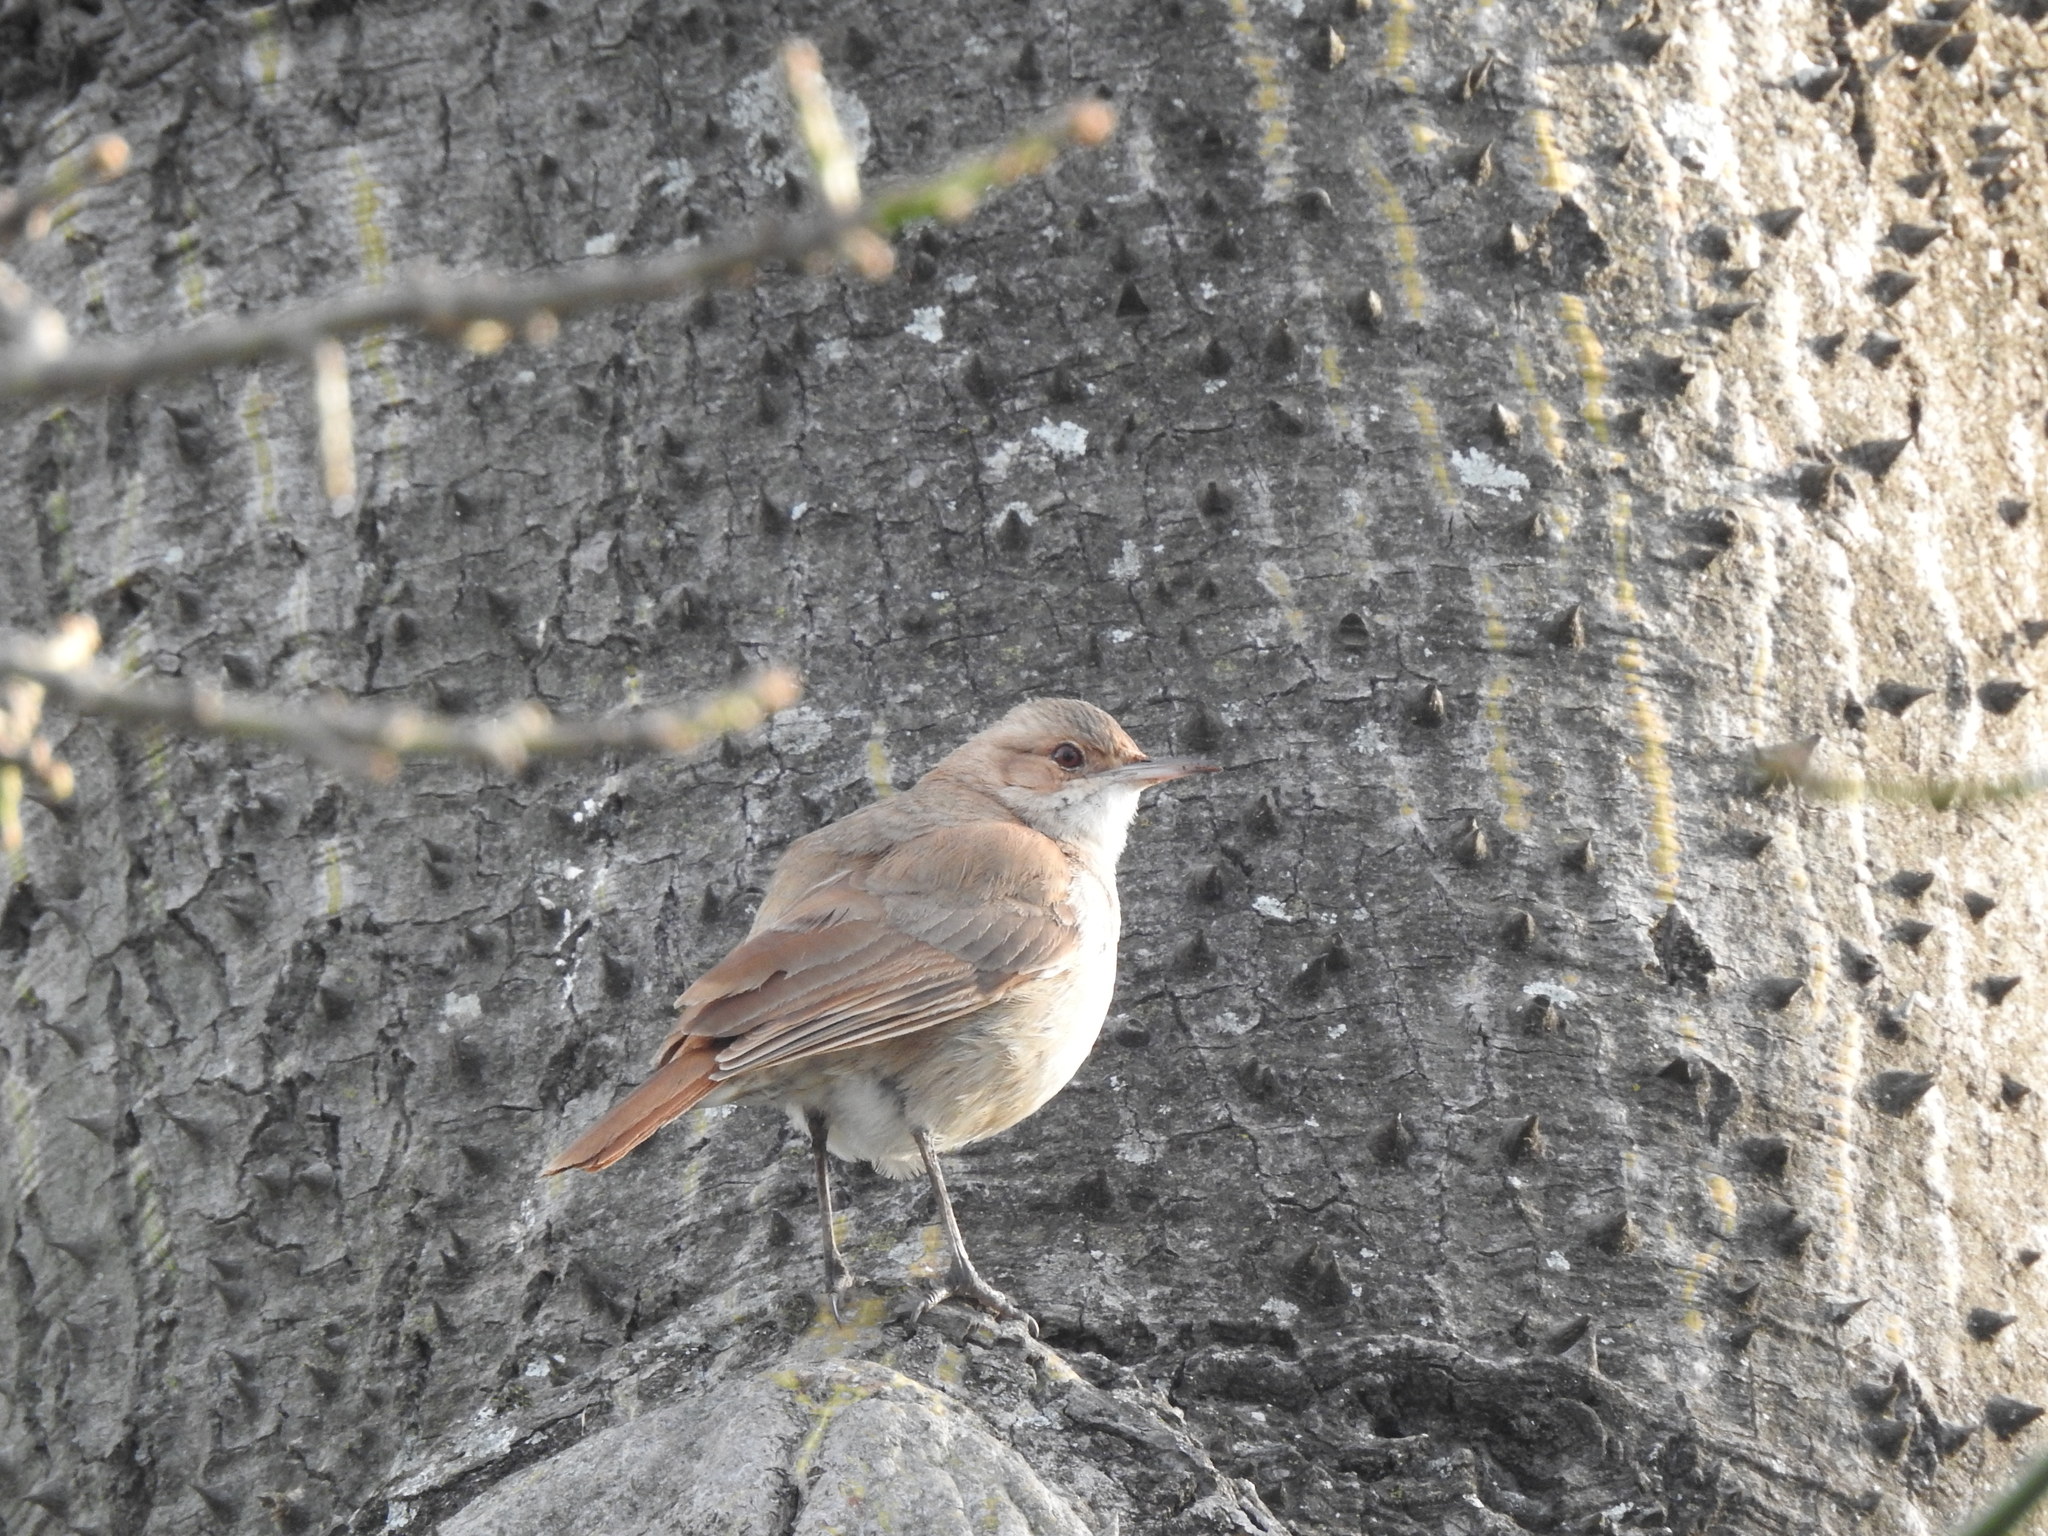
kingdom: Animalia
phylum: Chordata
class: Aves
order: Passeriformes
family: Furnariidae
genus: Furnarius
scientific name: Furnarius rufus
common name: Rufous hornero
